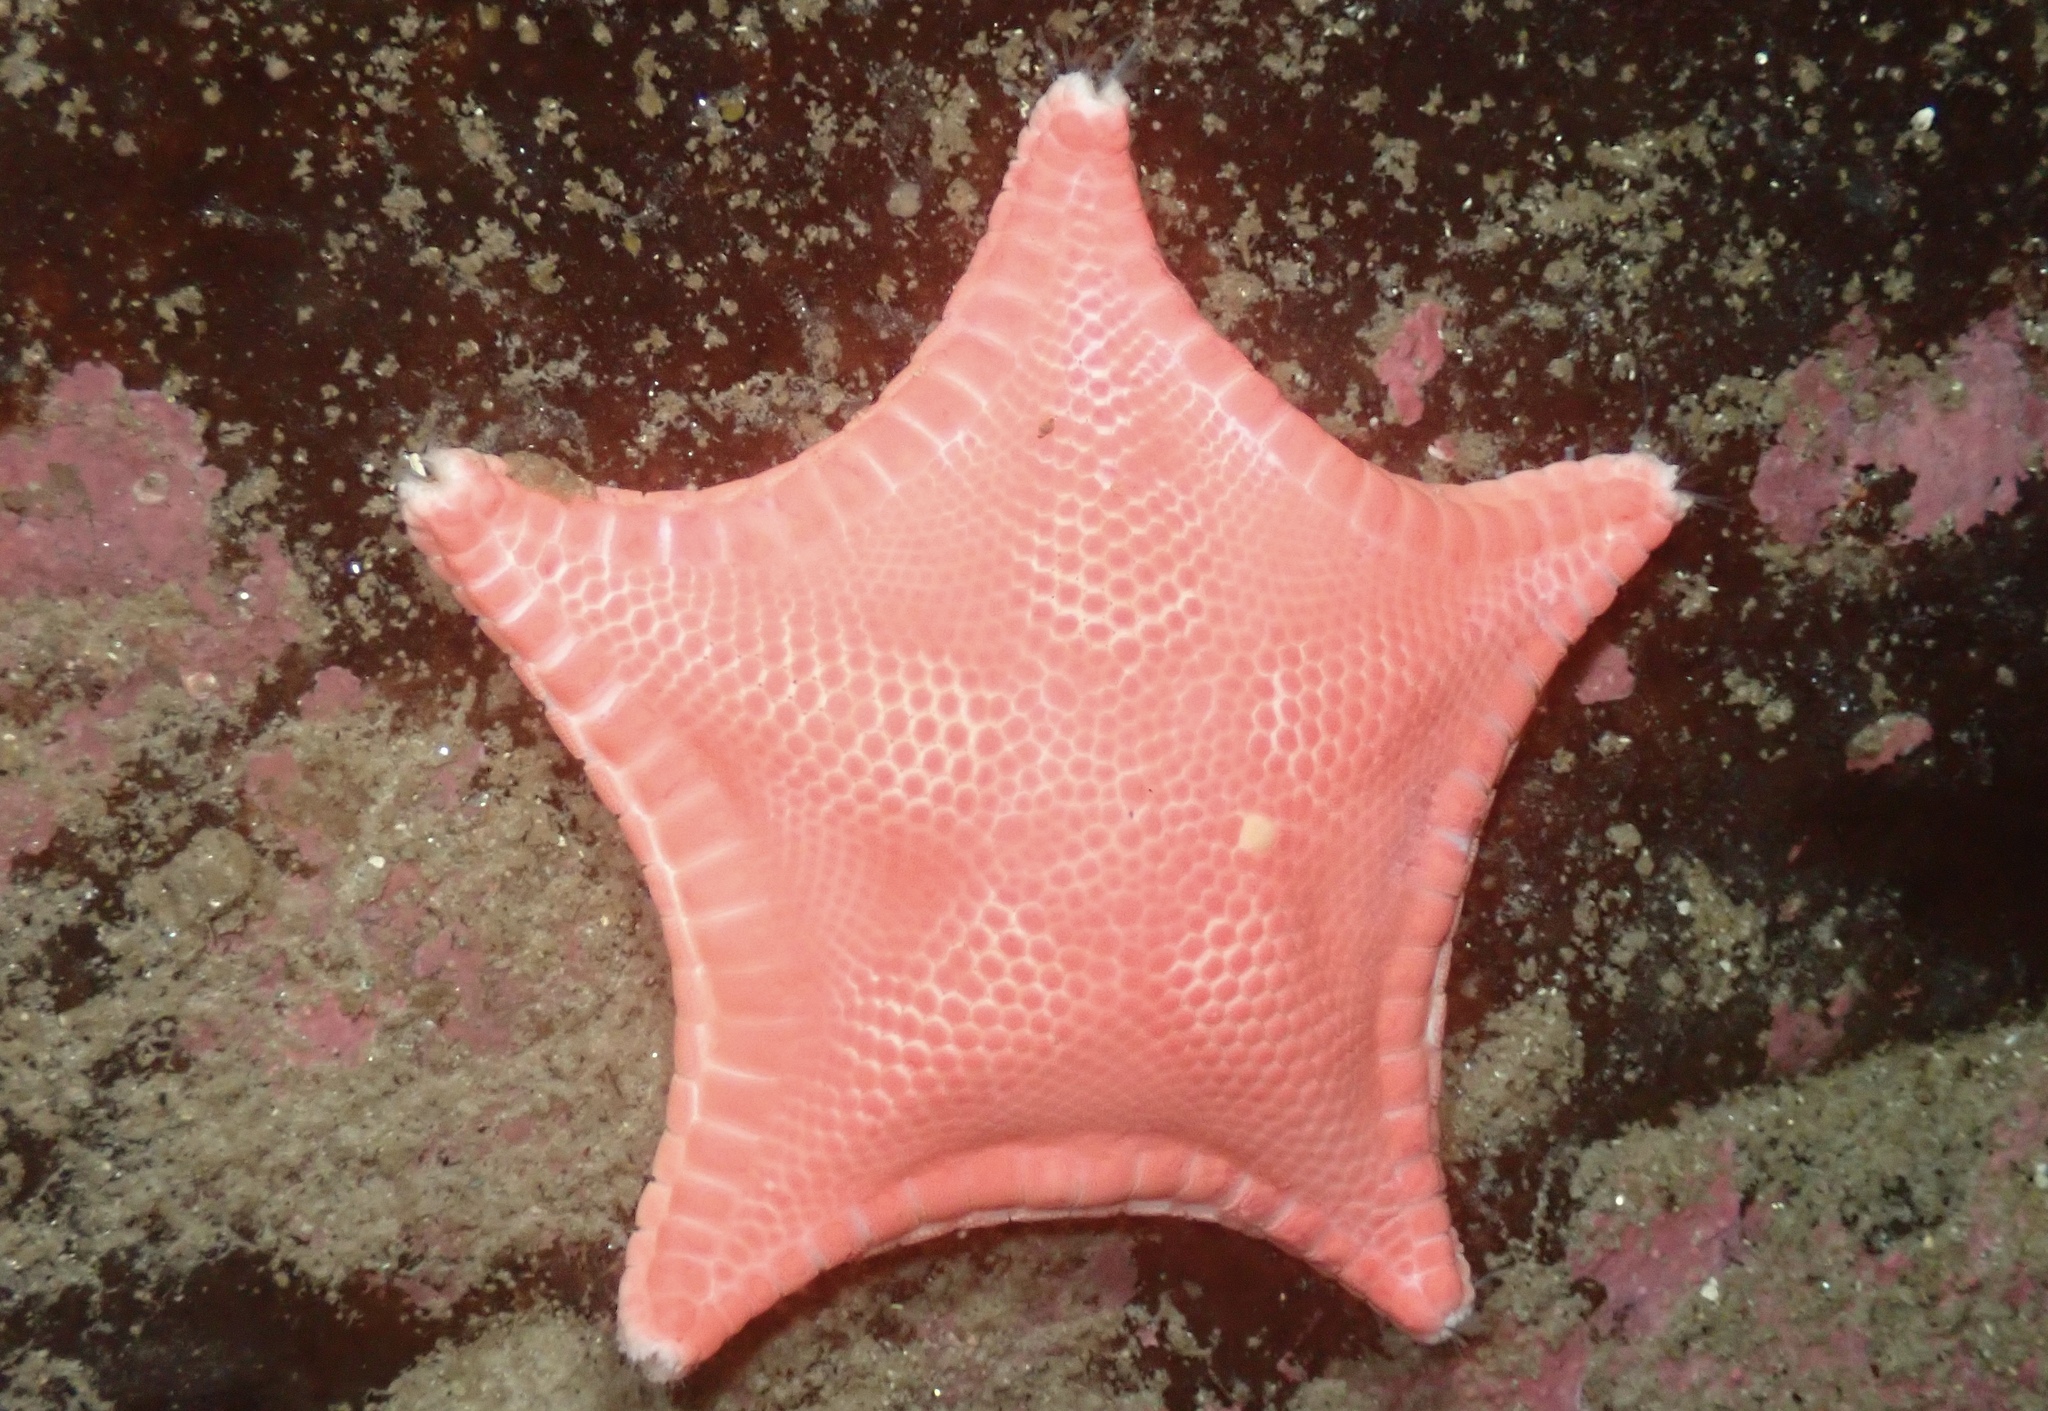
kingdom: Animalia
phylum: Echinodermata
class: Asteroidea
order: Valvatida
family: Goniasteridae
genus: Ceramaster
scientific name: Ceramaster granularis
